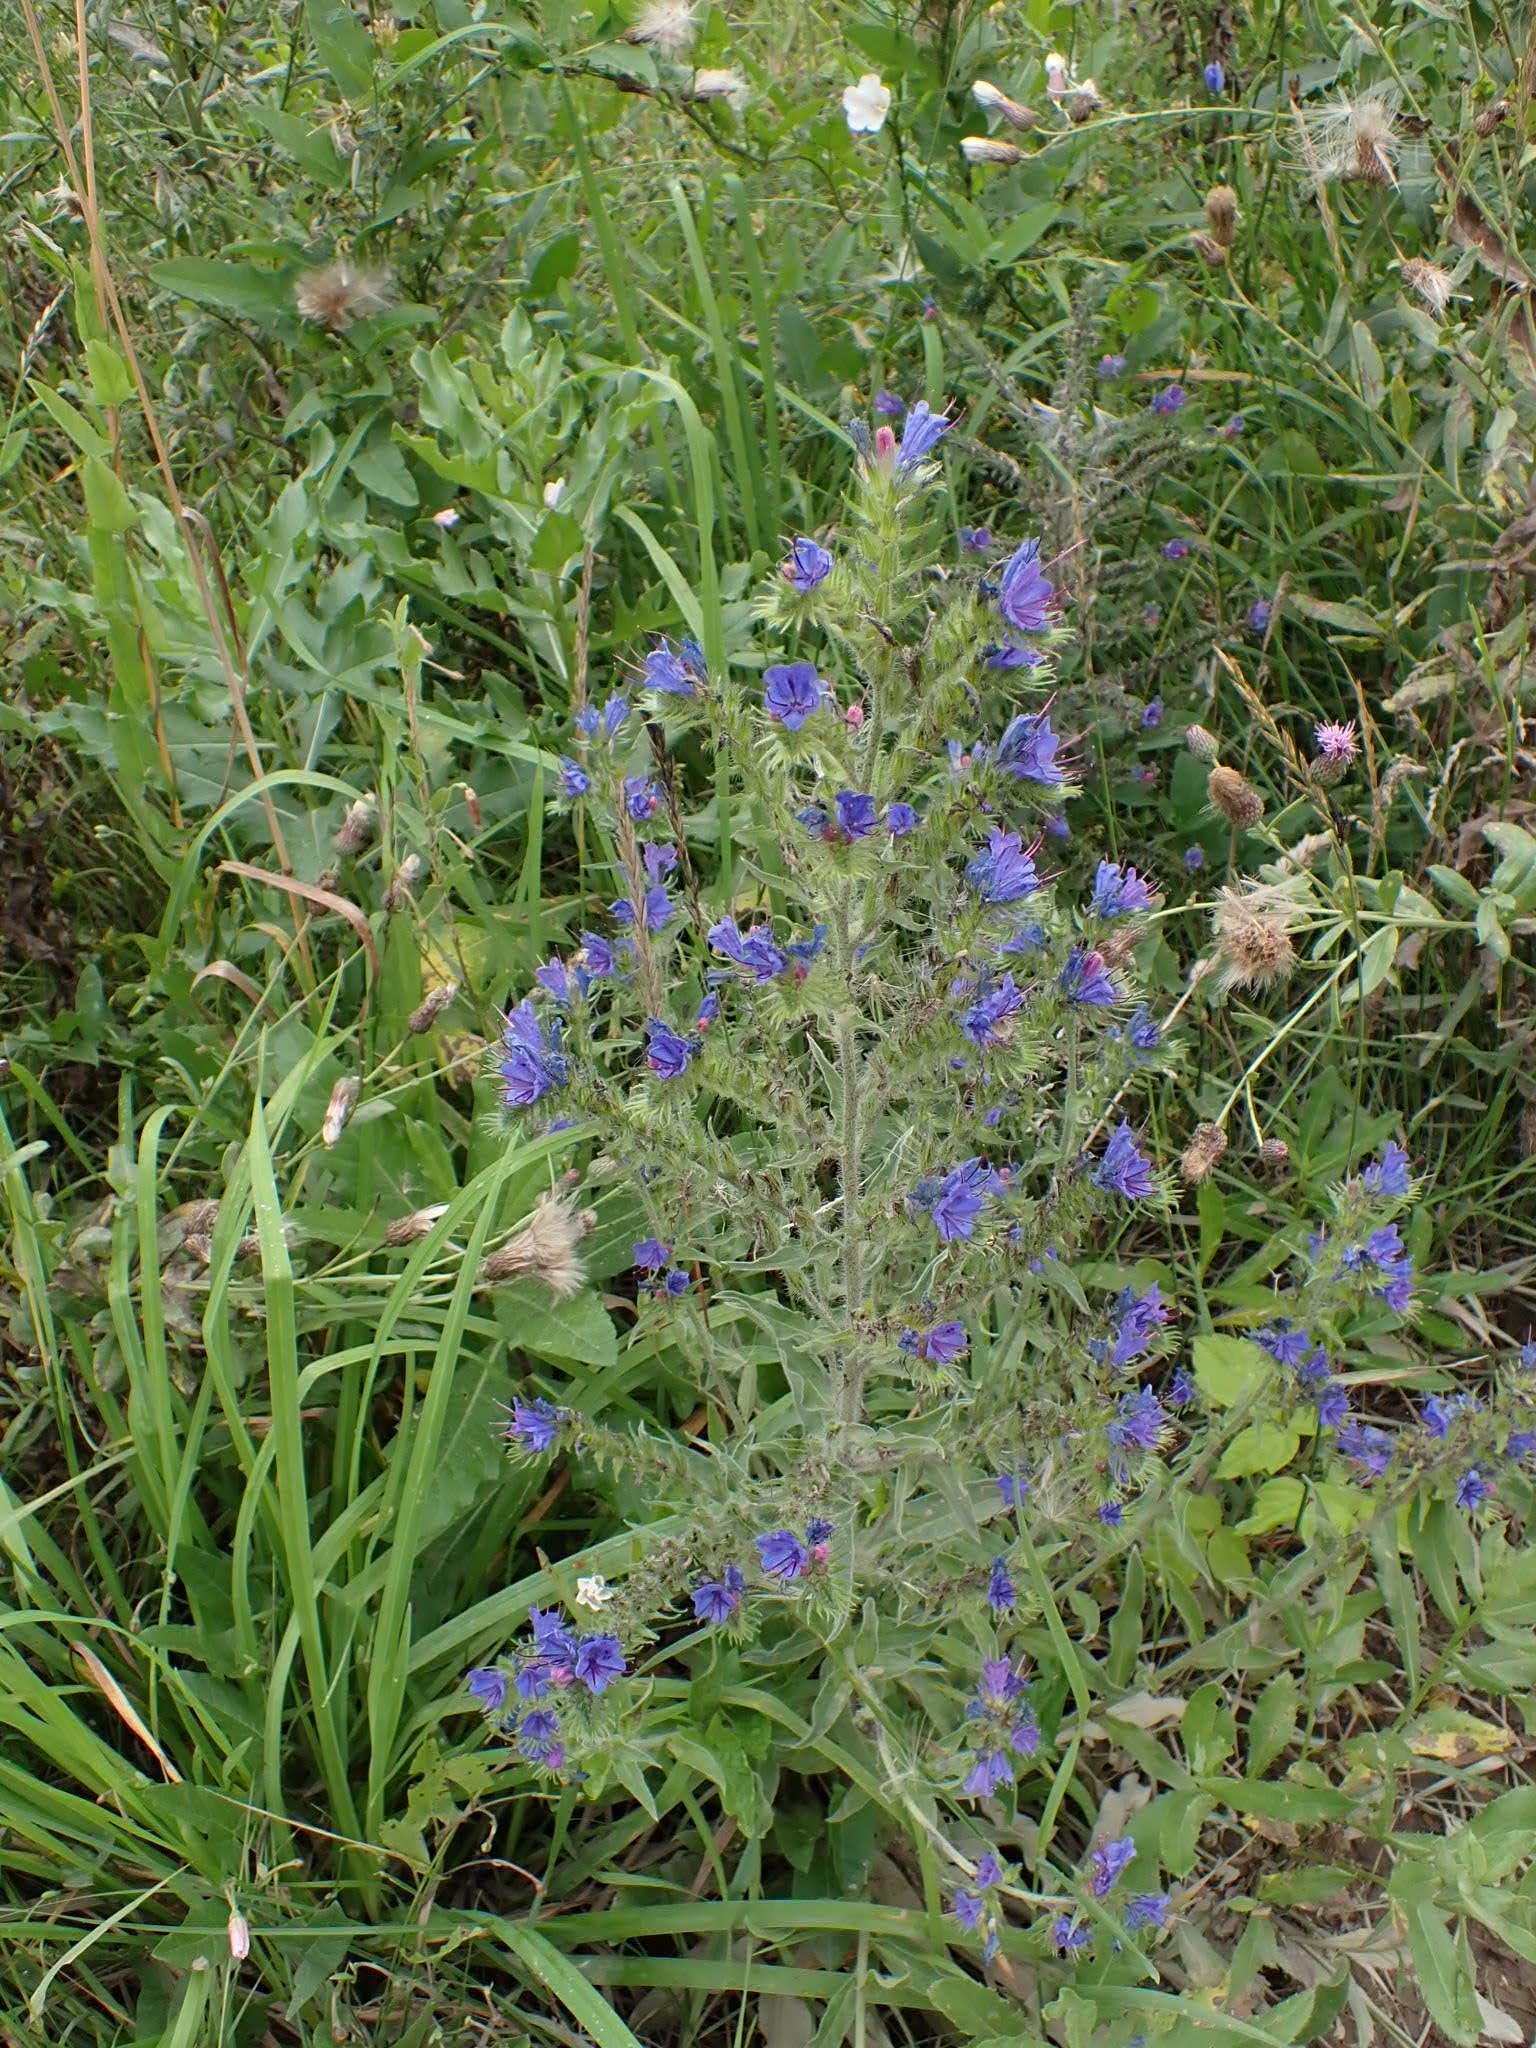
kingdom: Plantae
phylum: Tracheophyta
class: Magnoliopsida
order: Boraginales
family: Boraginaceae
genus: Echium
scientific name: Echium vulgare
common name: Common viper's bugloss
